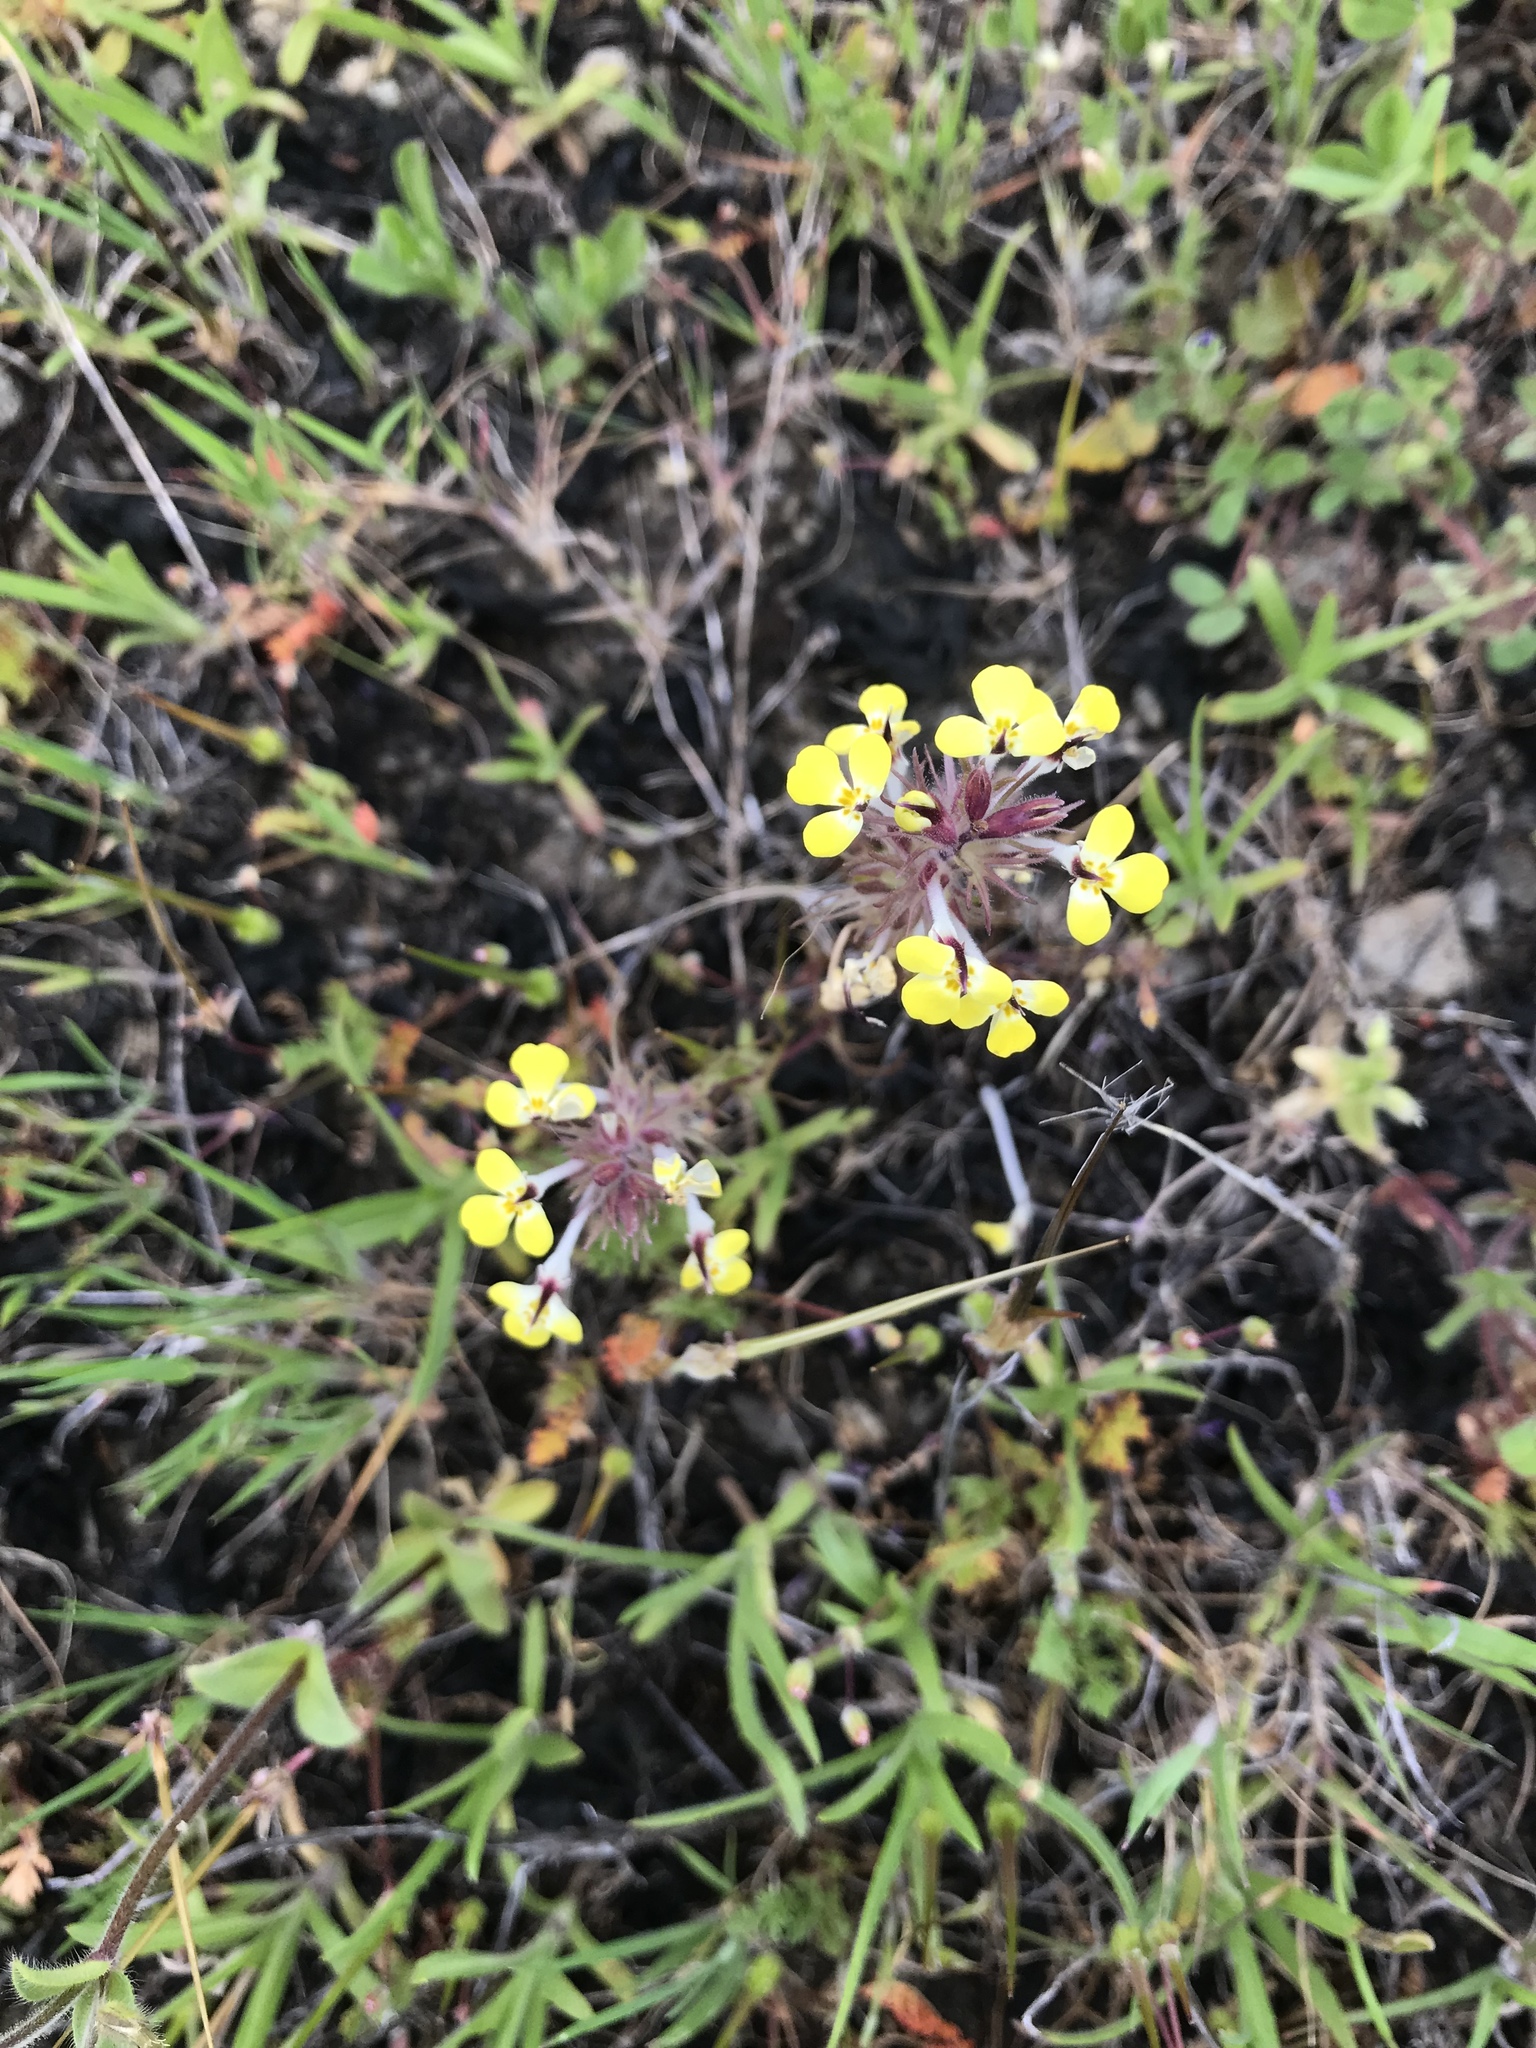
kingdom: Plantae
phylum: Tracheophyta
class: Magnoliopsida
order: Lamiales
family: Orobanchaceae
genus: Triphysaria
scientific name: Triphysaria eriantha
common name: Johnny-tuck
